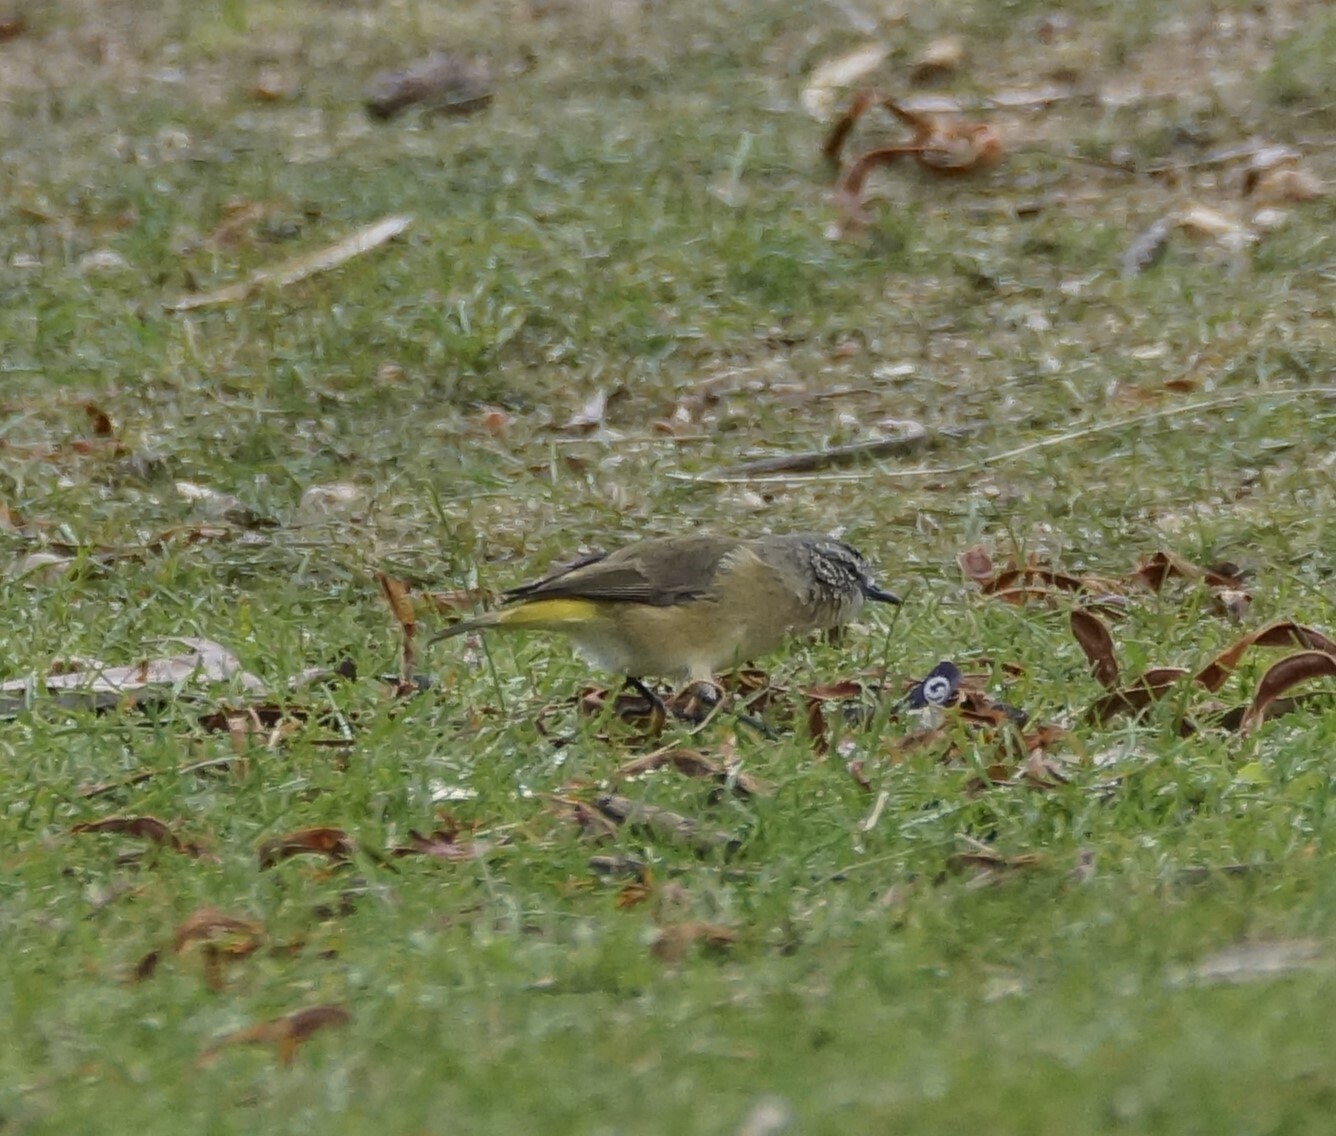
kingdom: Animalia
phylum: Chordata
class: Aves
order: Passeriformes
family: Acanthizidae
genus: Acanthiza
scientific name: Acanthiza chrysorrhoa
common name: Yellow-rumped thornbill
